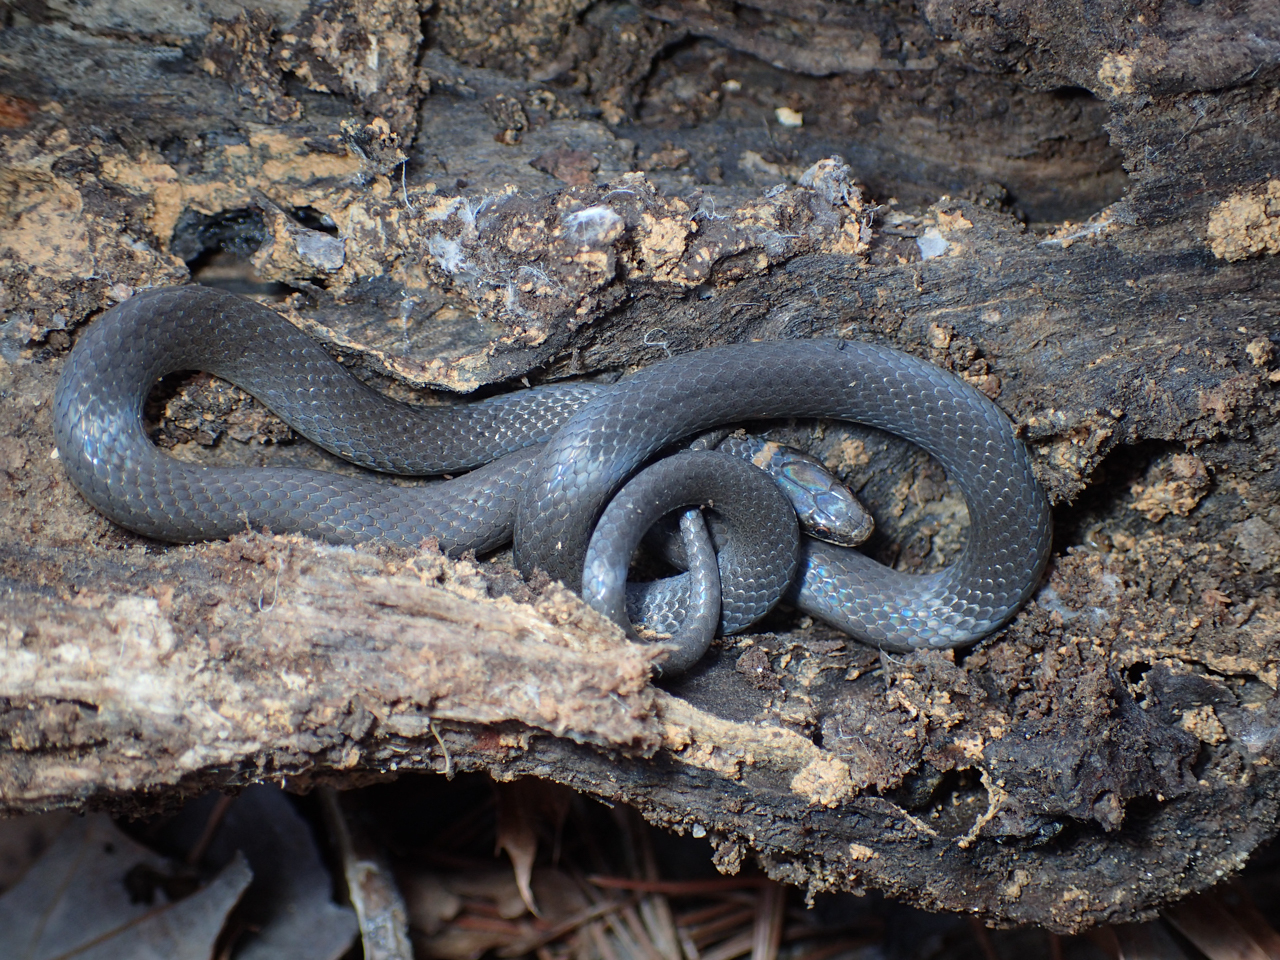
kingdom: Animalia
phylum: Chordata
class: Squamata
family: Colubridae
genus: Diadophis
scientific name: Diadophis punctatus
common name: Ringneck snake
